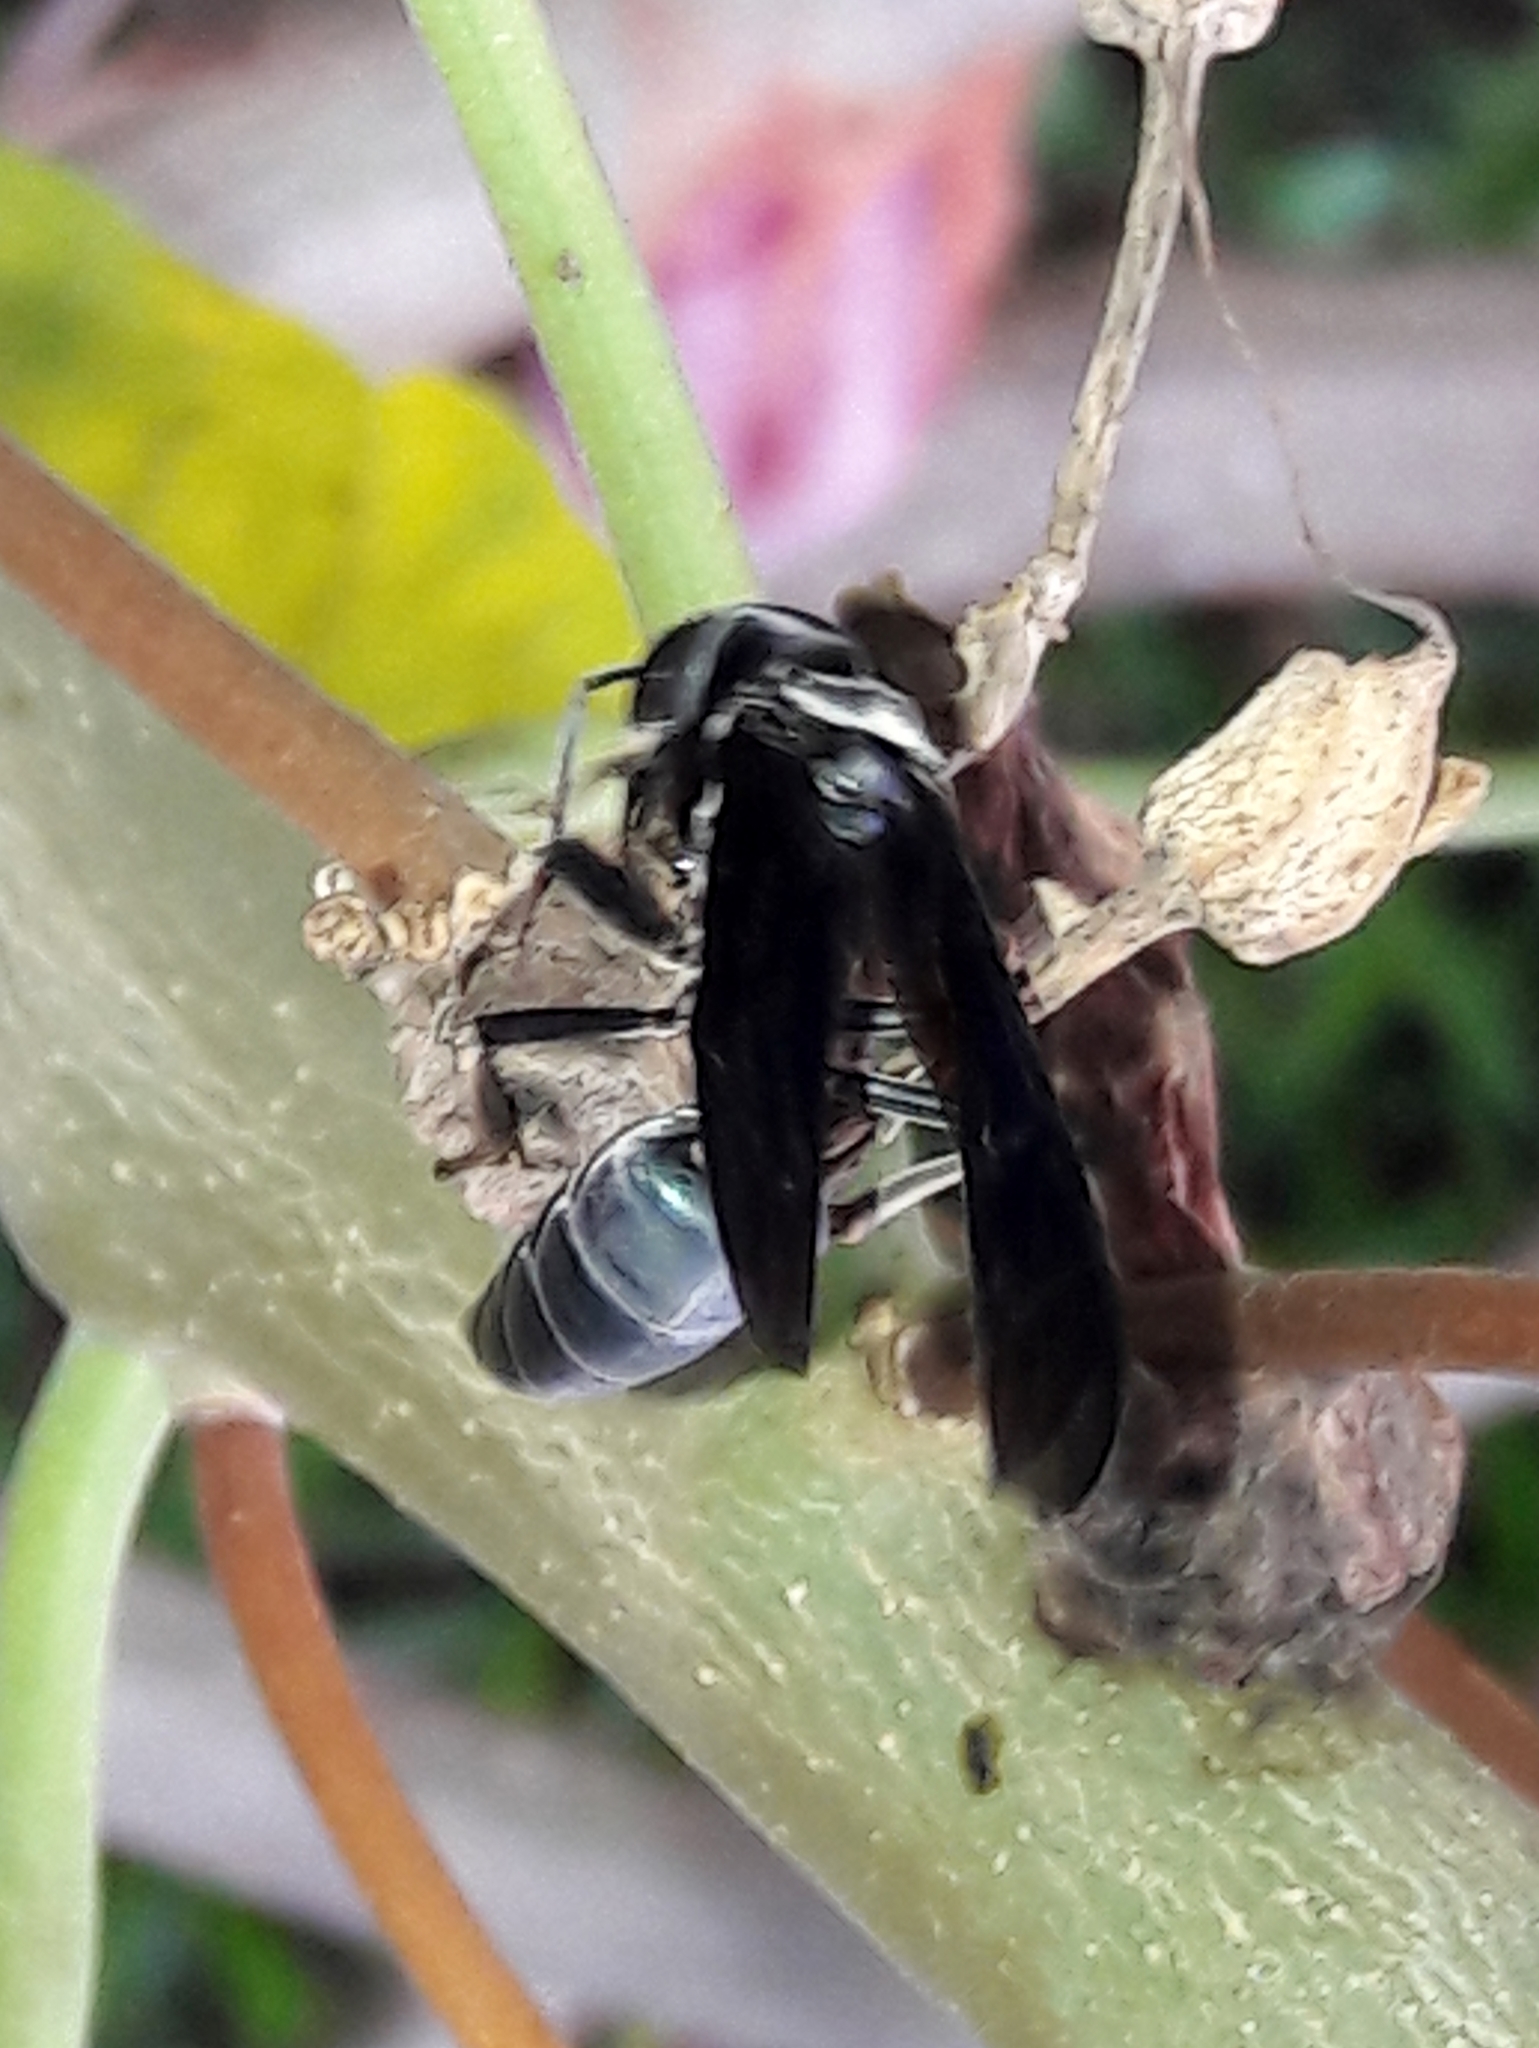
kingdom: Animalia
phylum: Arthropoda
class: Insecta
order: Hymenoptera
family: Vespidae
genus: Synoeca
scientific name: Synoeca surinama
